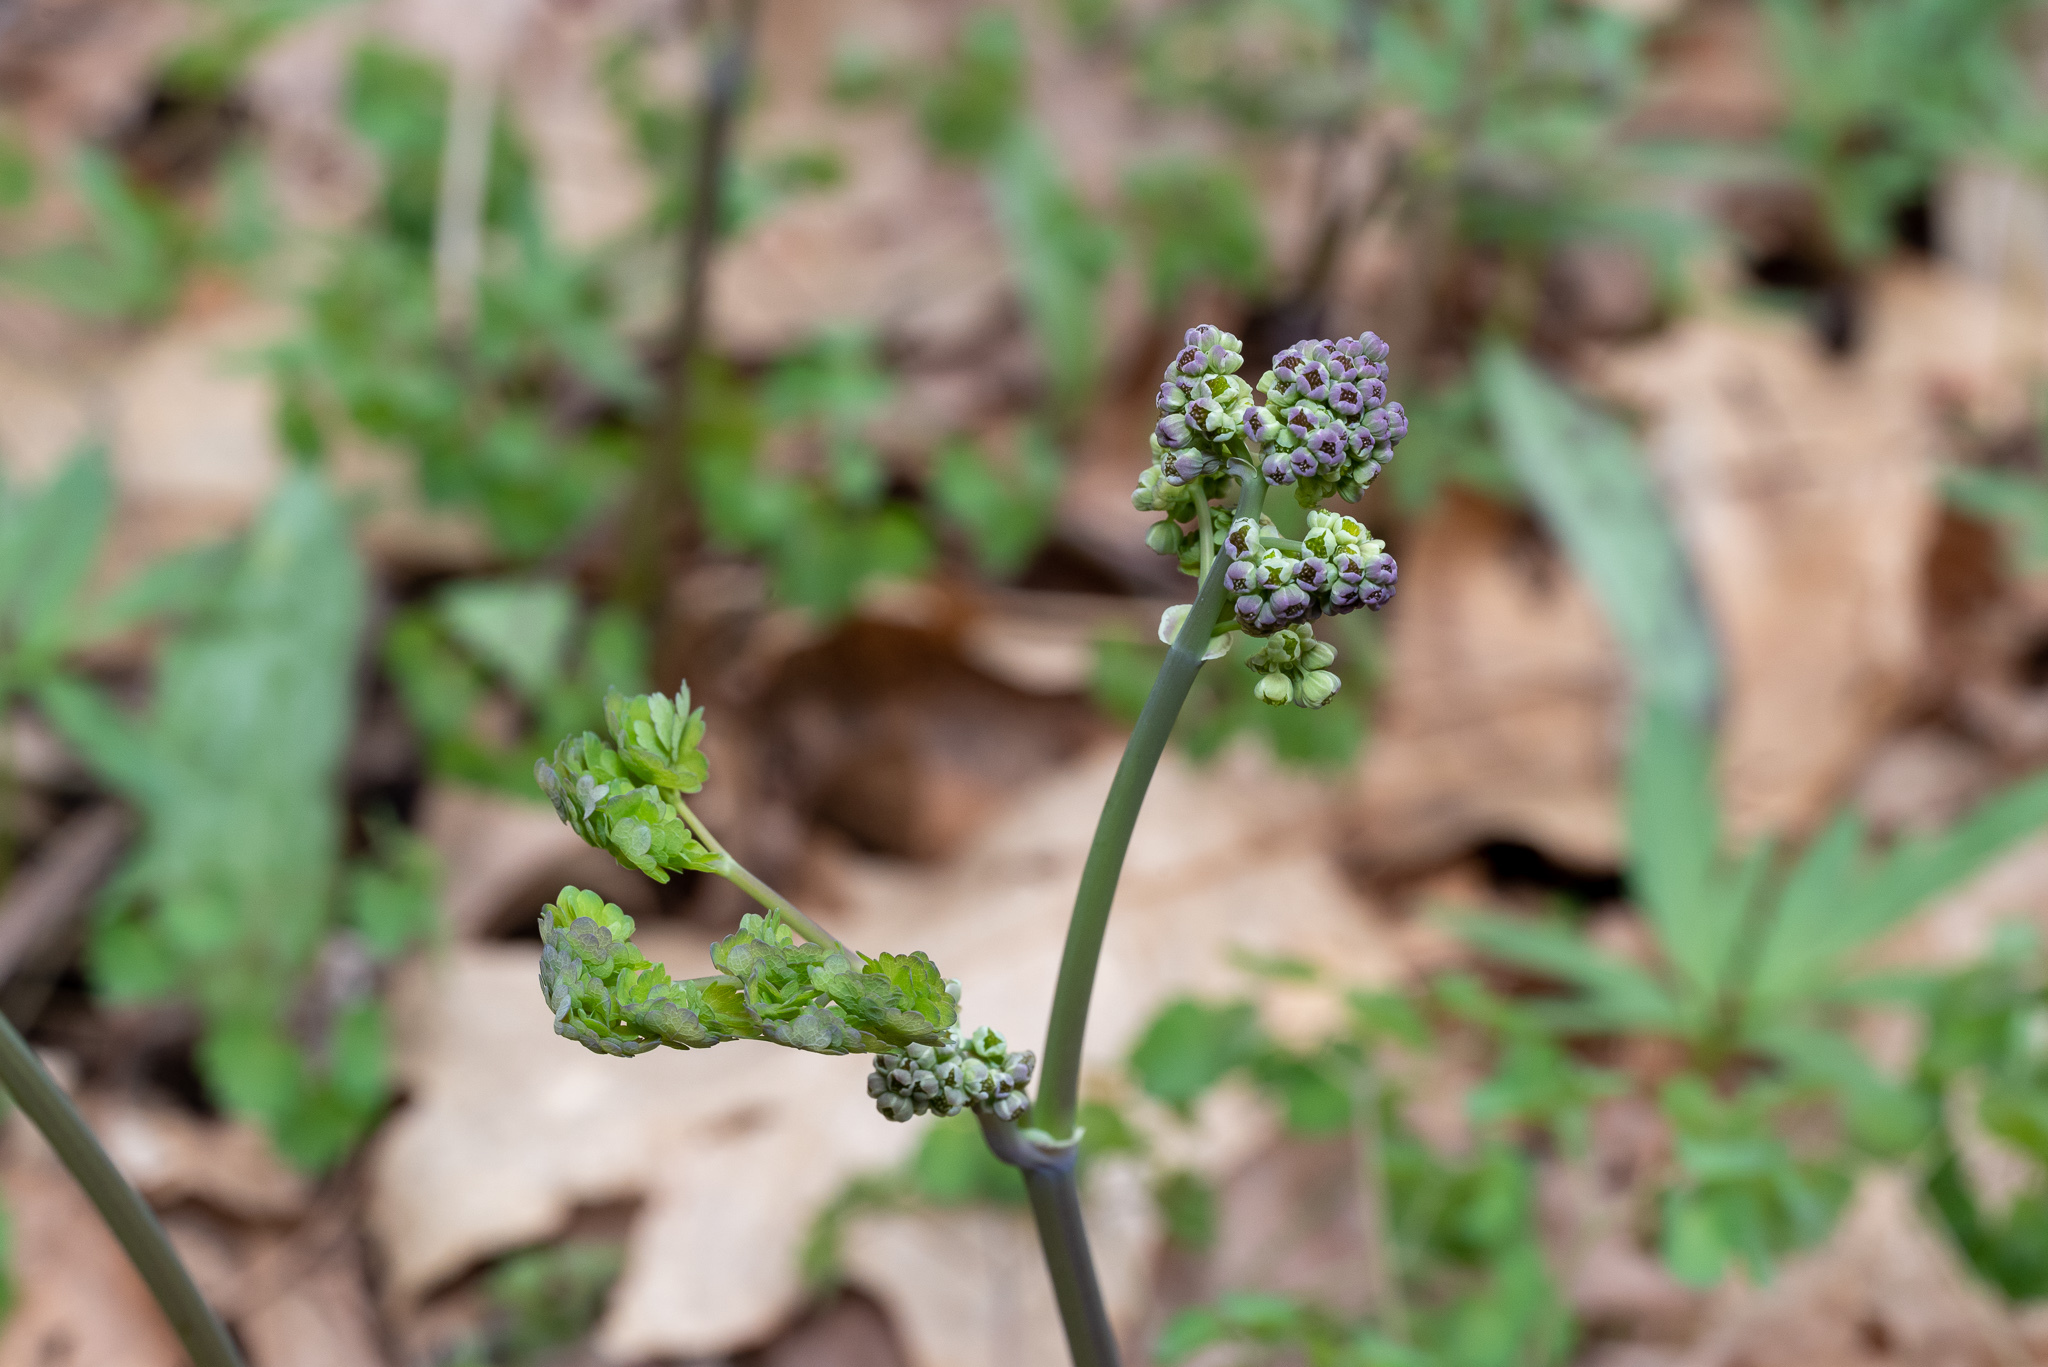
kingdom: Plantae
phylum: Tracheophyta
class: Magnoliopsida
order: Ranunculales
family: Ranunculaceae
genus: Thalictrum
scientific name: Thalictrum dioicum
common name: Early meadow-rue
